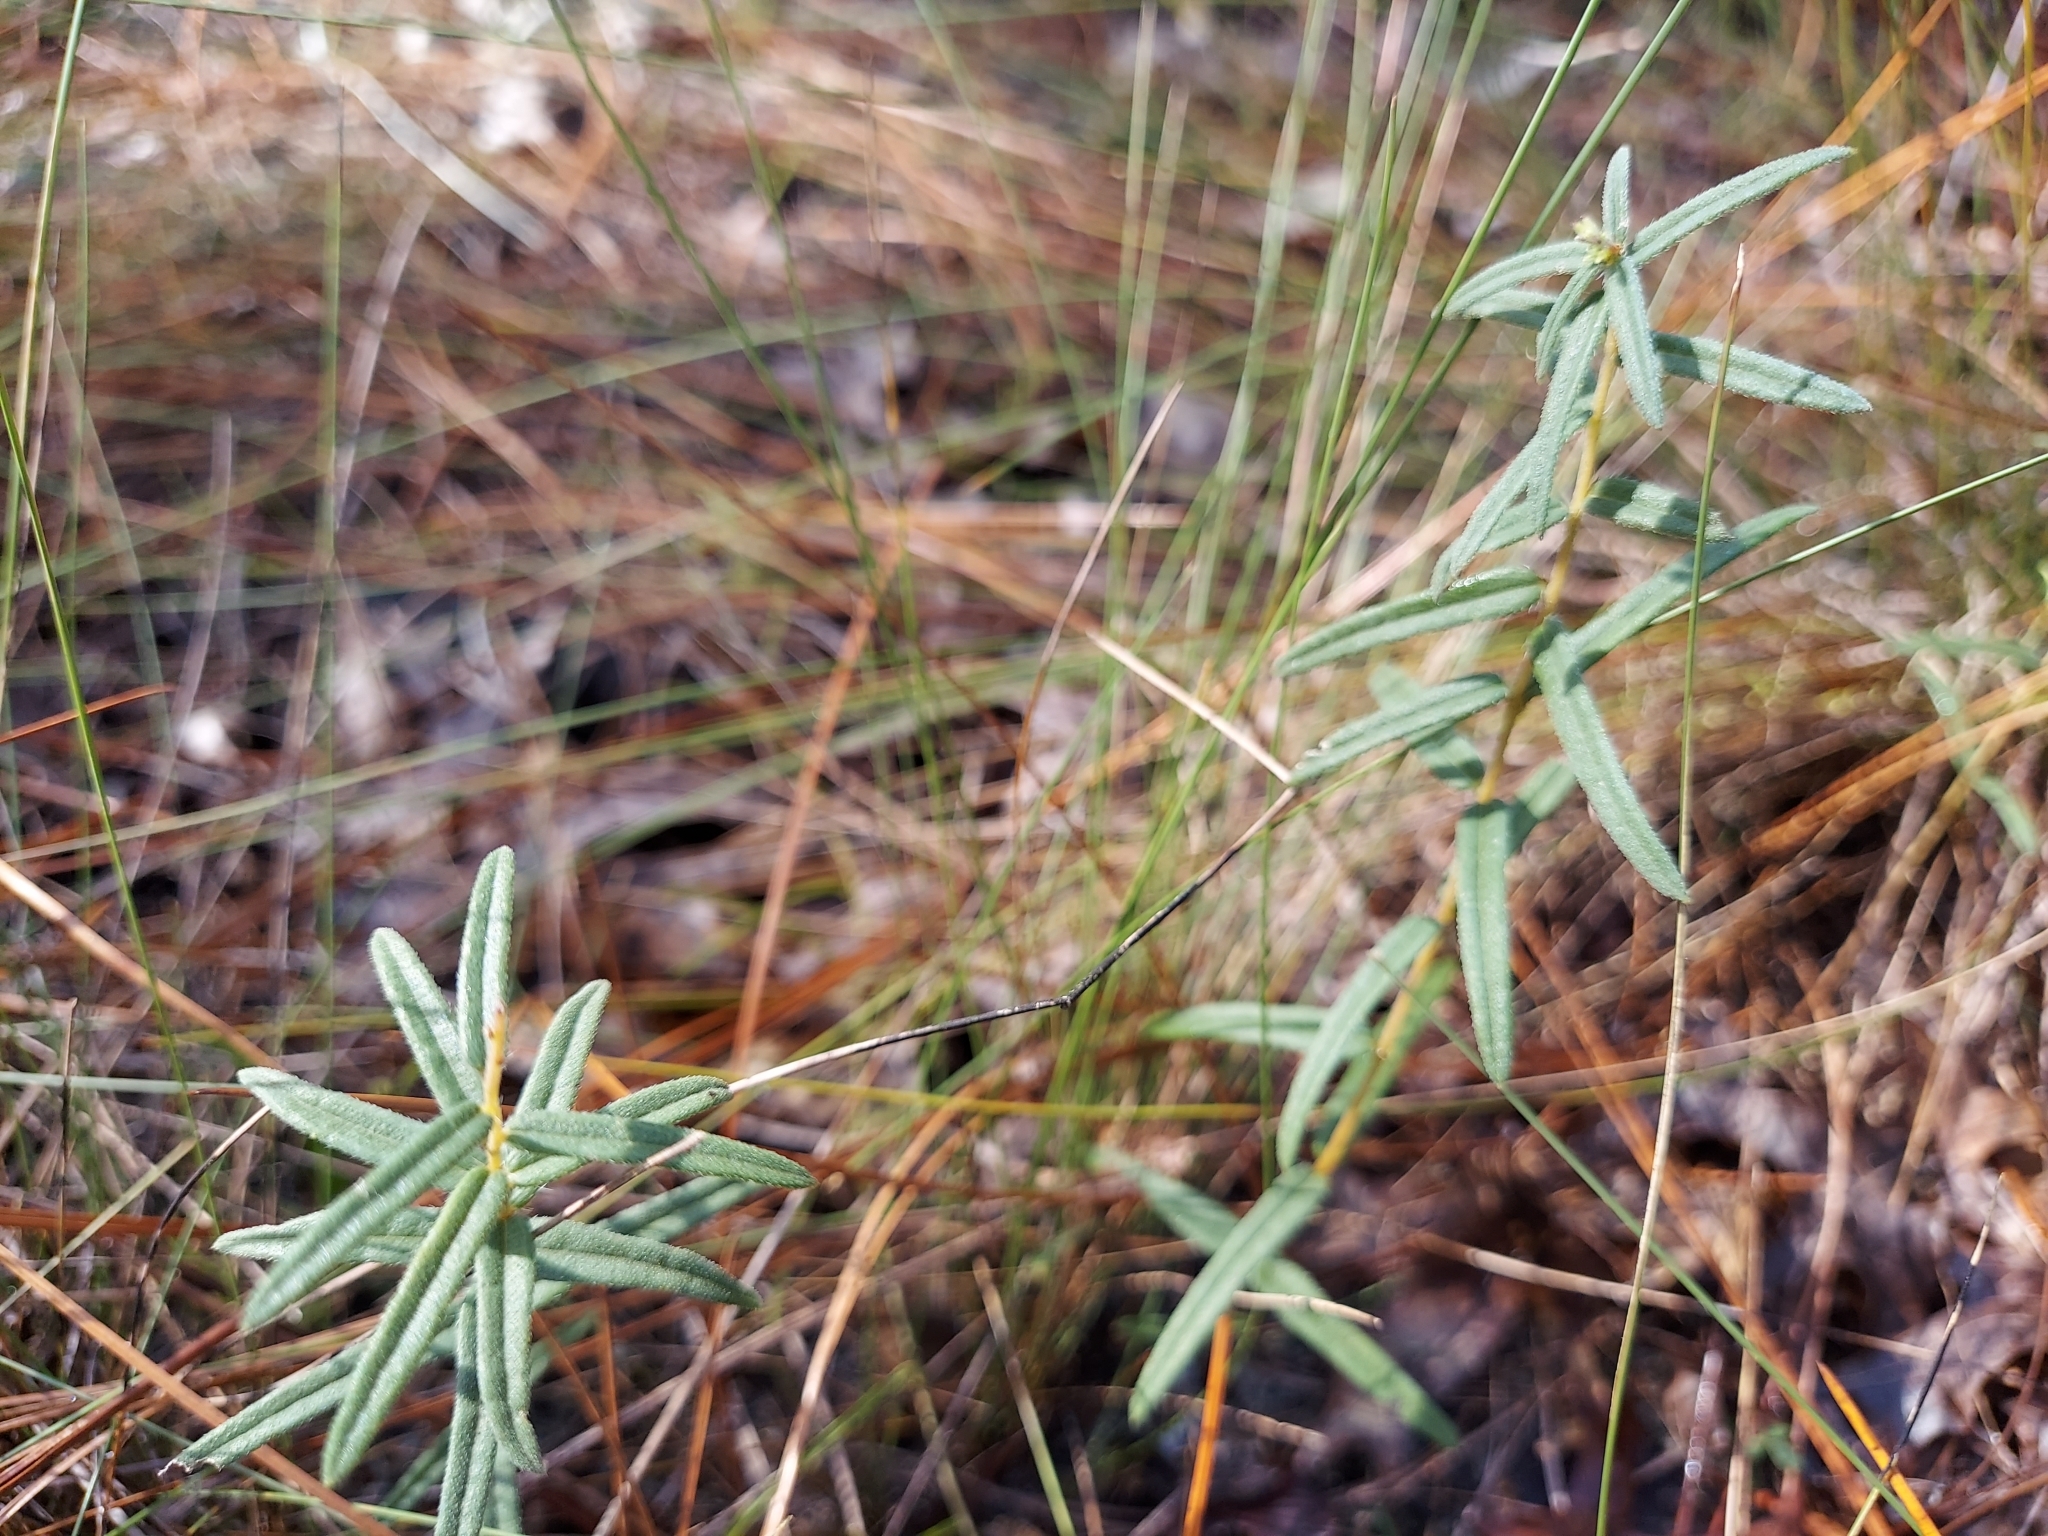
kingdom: Plantae
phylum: Tracheophyta
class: Magnoliopsida
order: Asterales
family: Asteraceae
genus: Phoebanthus
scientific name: Phoebanthus grandiflora
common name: Florida false sunflower
